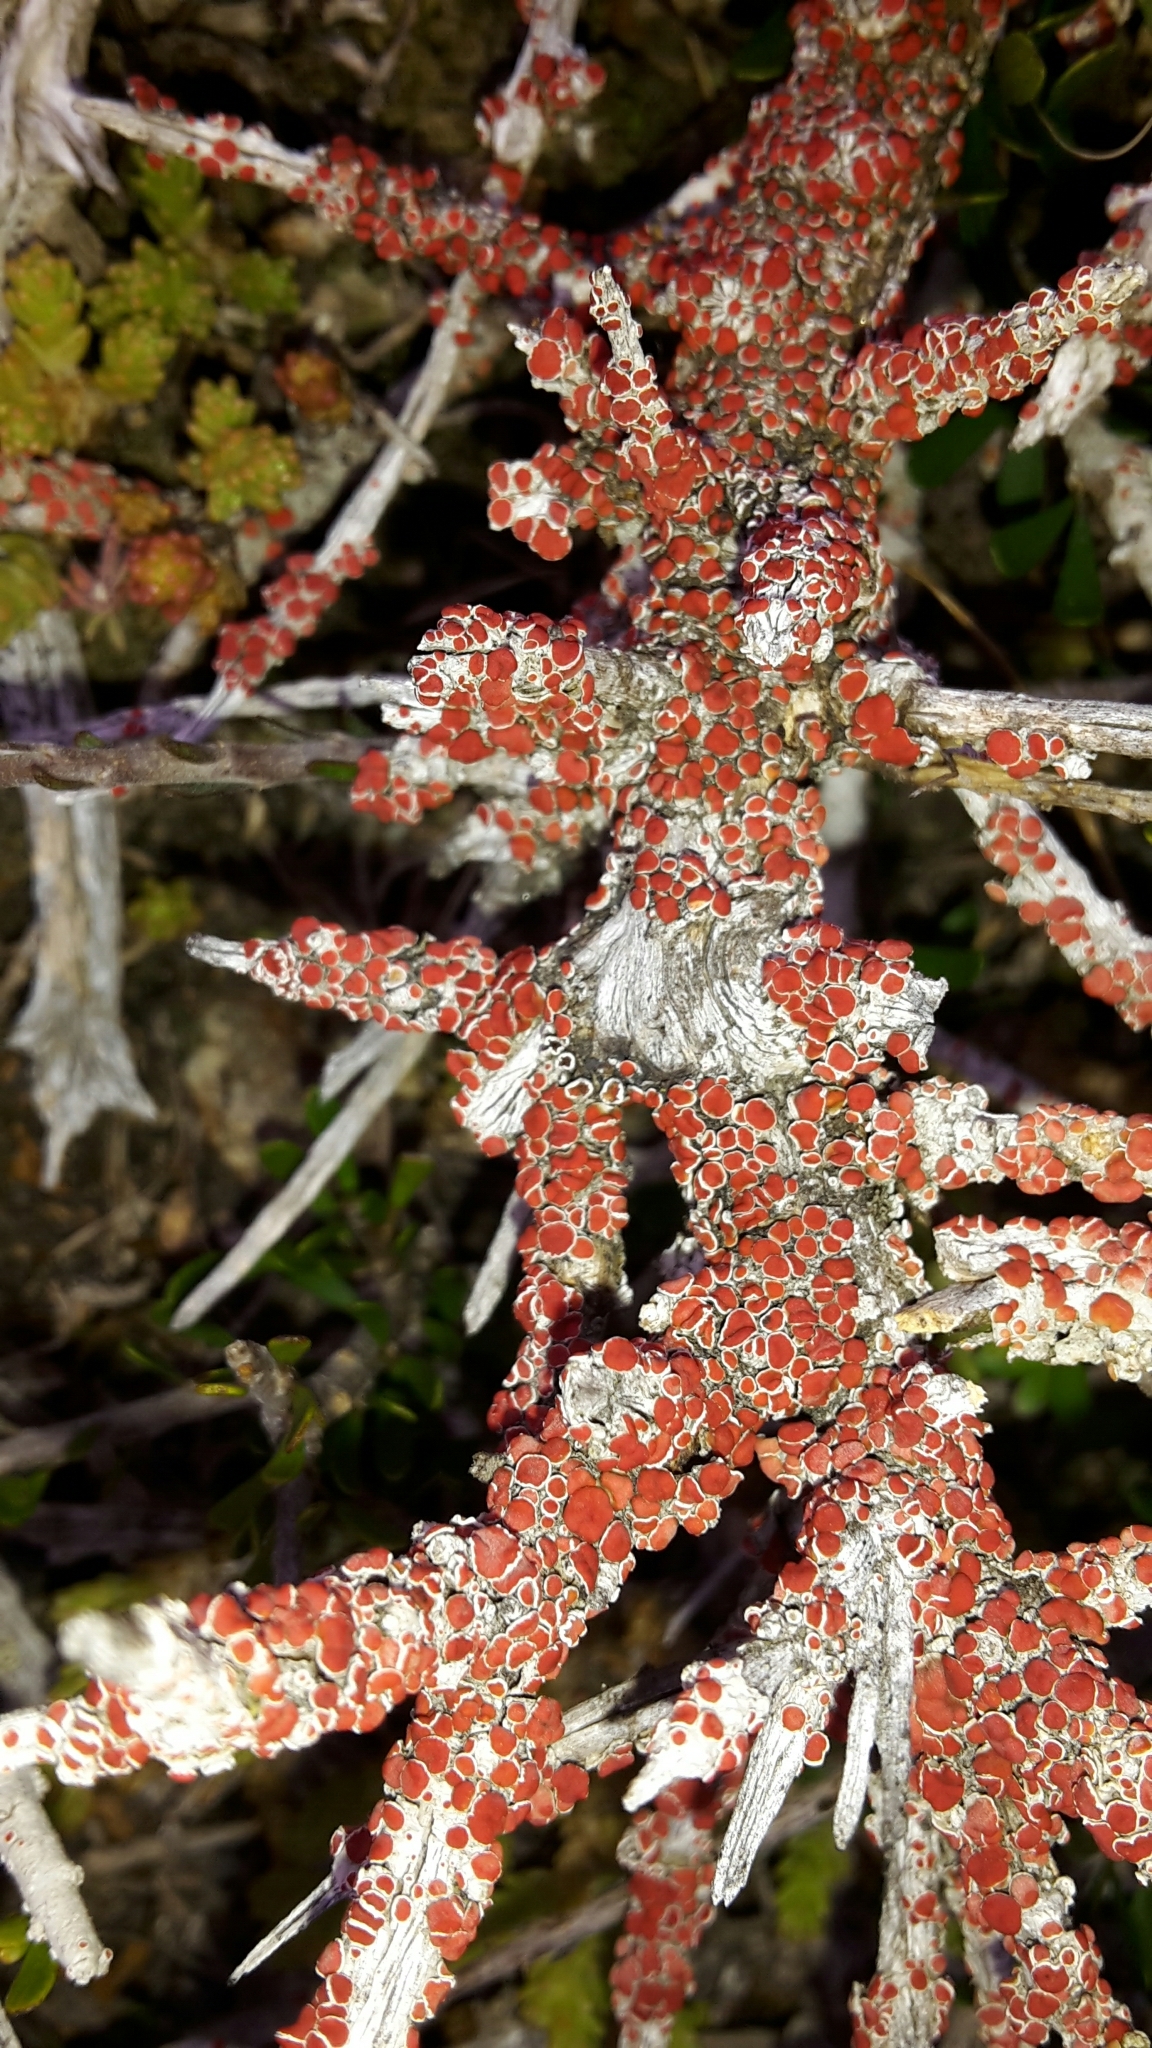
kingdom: Fungi
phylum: Ascomycota
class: Lecanoromycetes
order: Lecanorales
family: Haematommataceae
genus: Haematomma
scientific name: Haematomma
